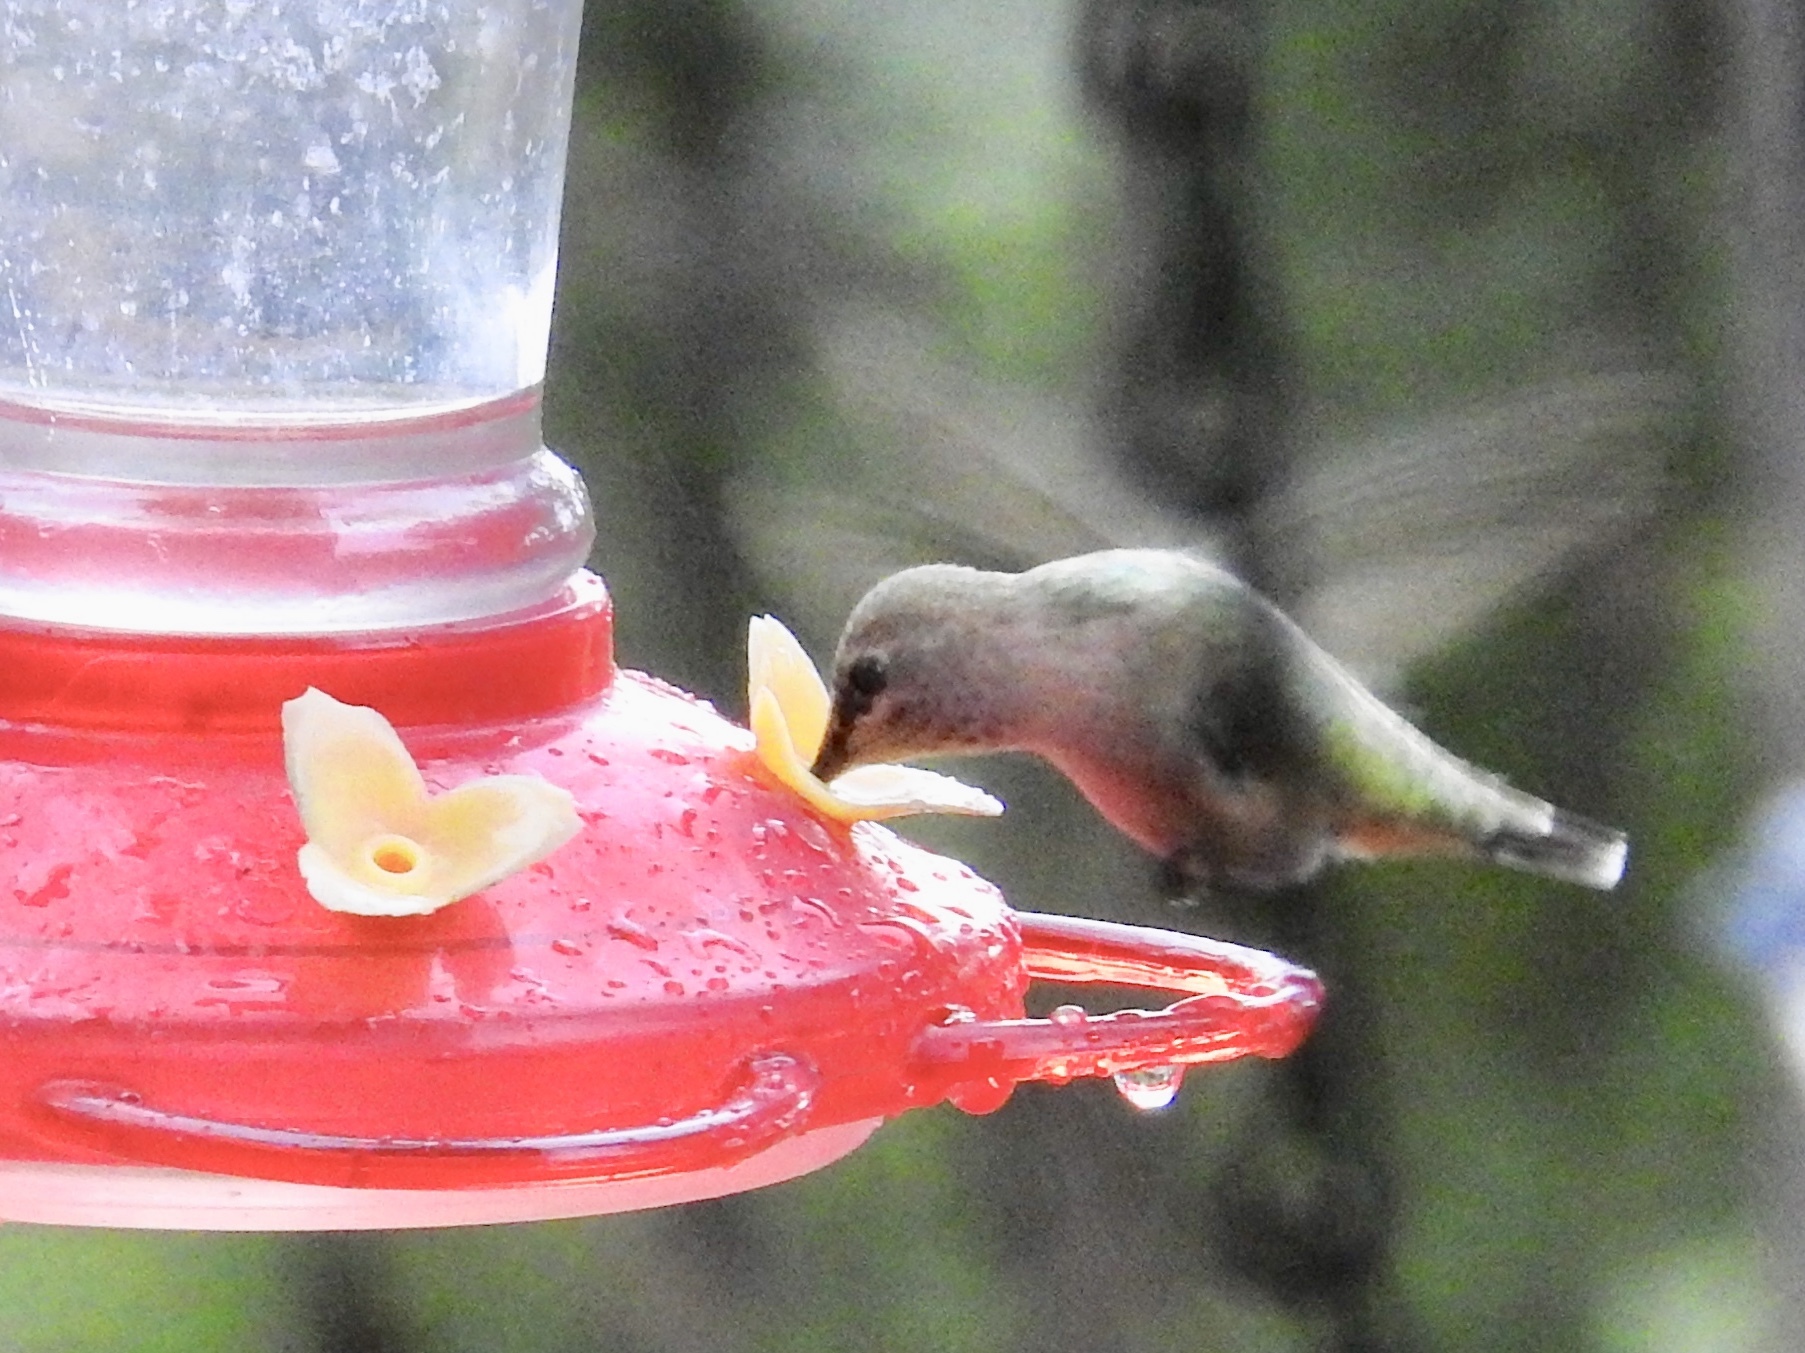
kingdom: Animalia
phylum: Chordata
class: Aves
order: Apodiformes
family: Trochilidae
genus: Calypte
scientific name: Calypte anna
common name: Anna's hummingbird
